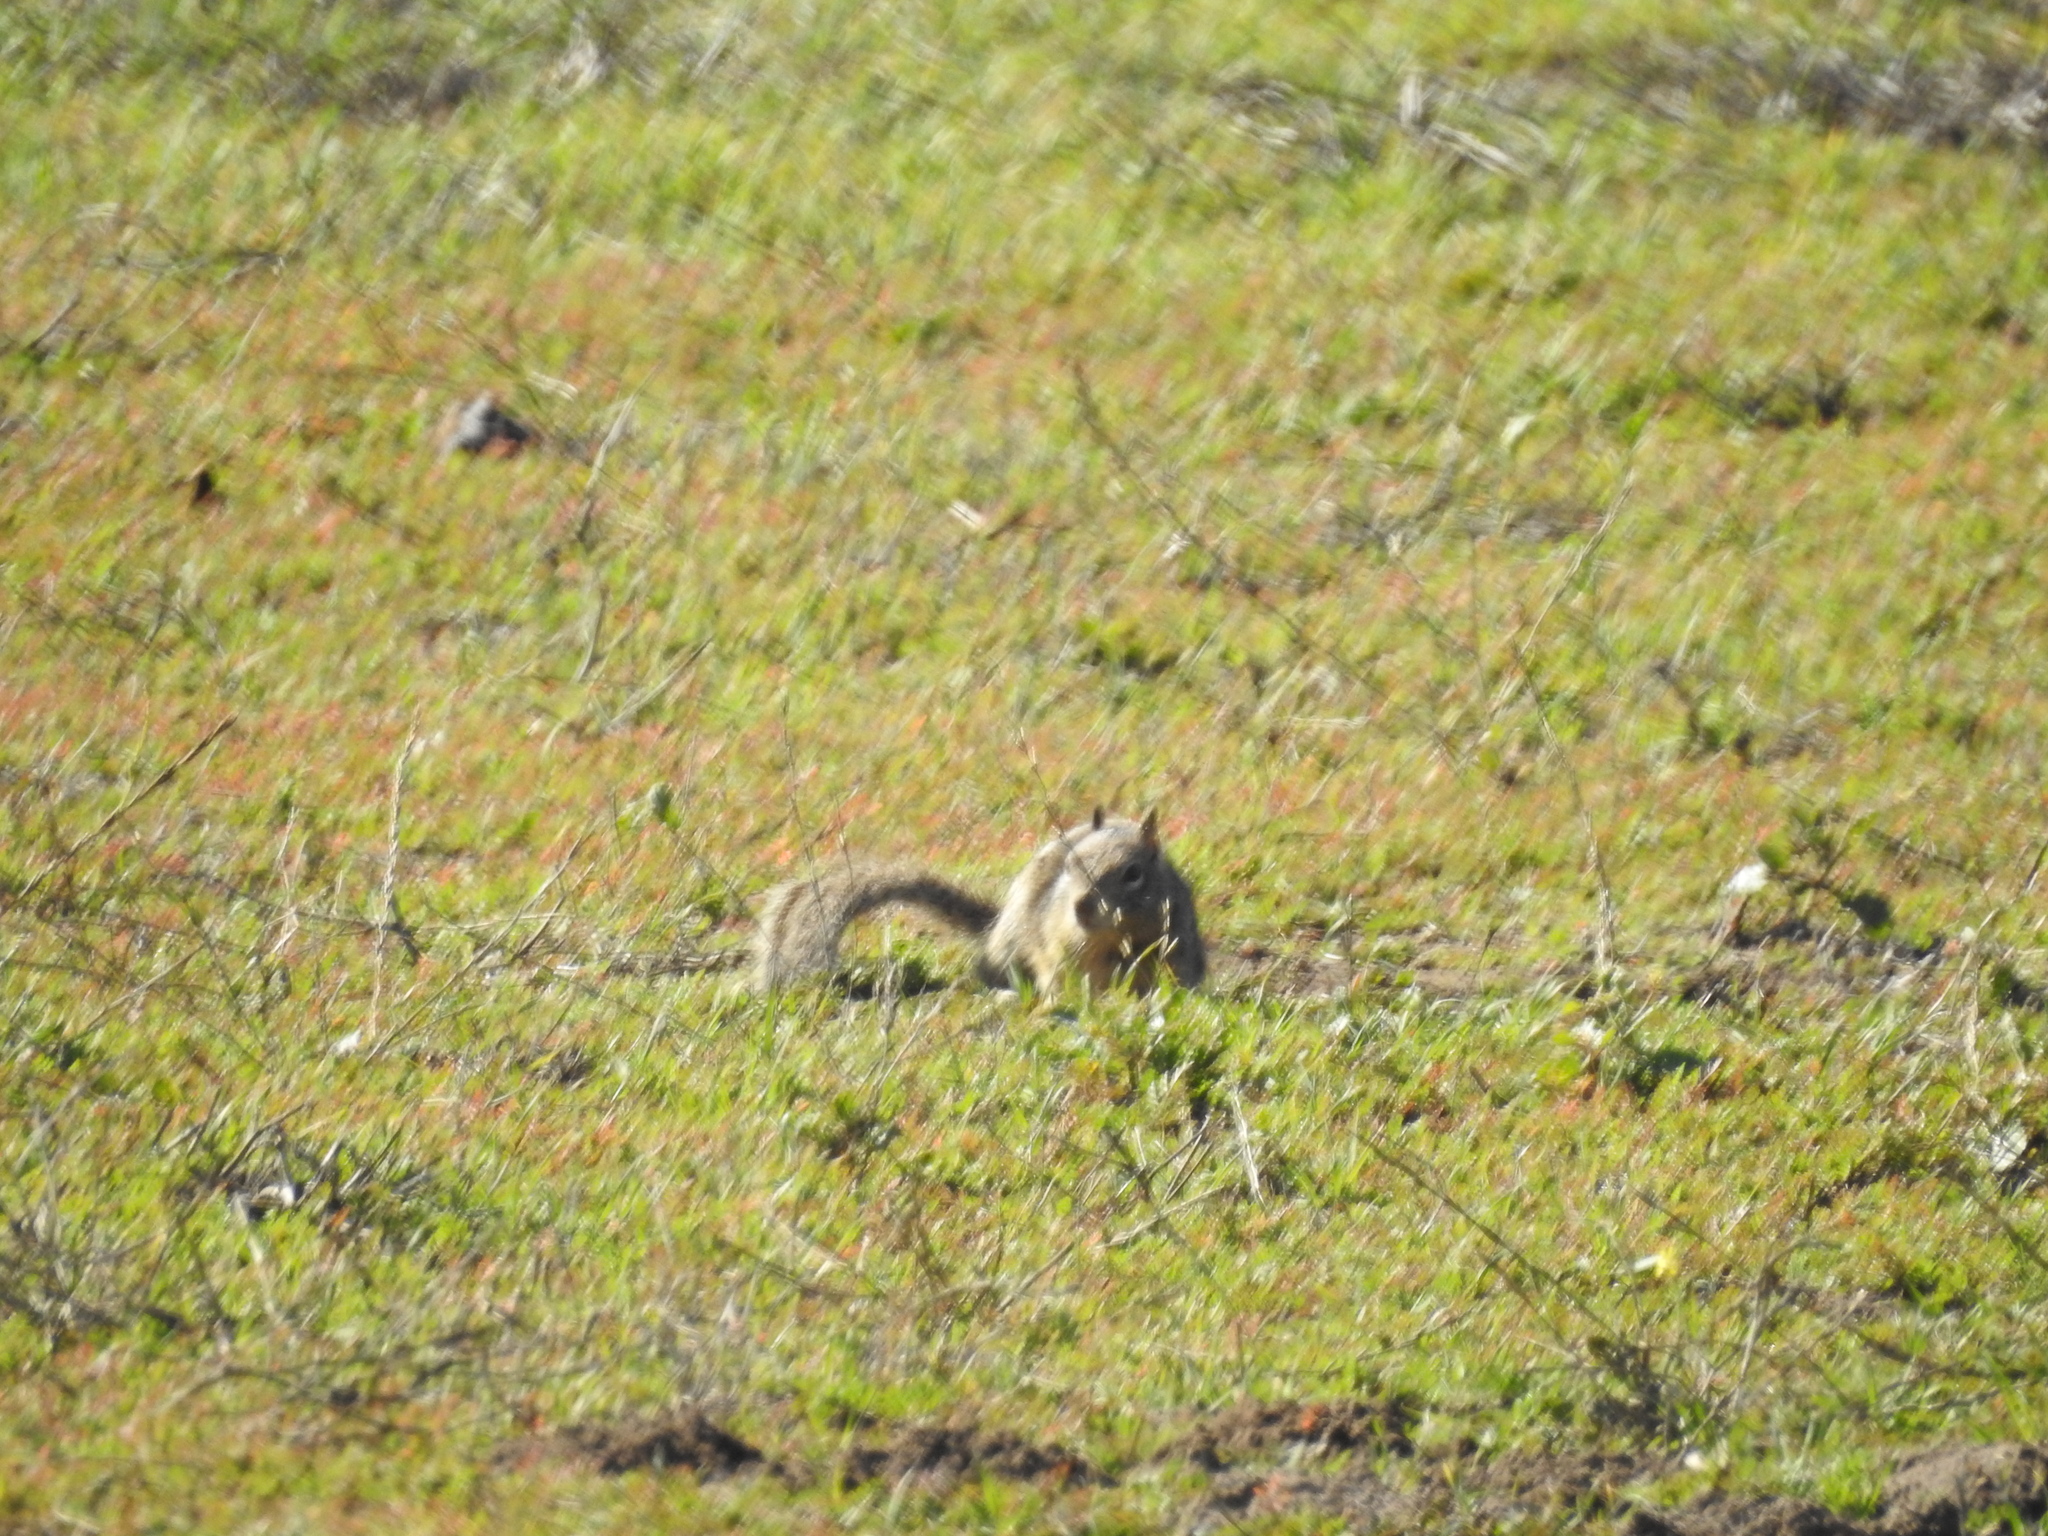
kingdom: Animalia
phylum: Chordata
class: Mammalia
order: Rodentia
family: Sciuridae
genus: Otospermophilus
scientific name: Otospermophilus beecheyi
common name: California ground squirrel
